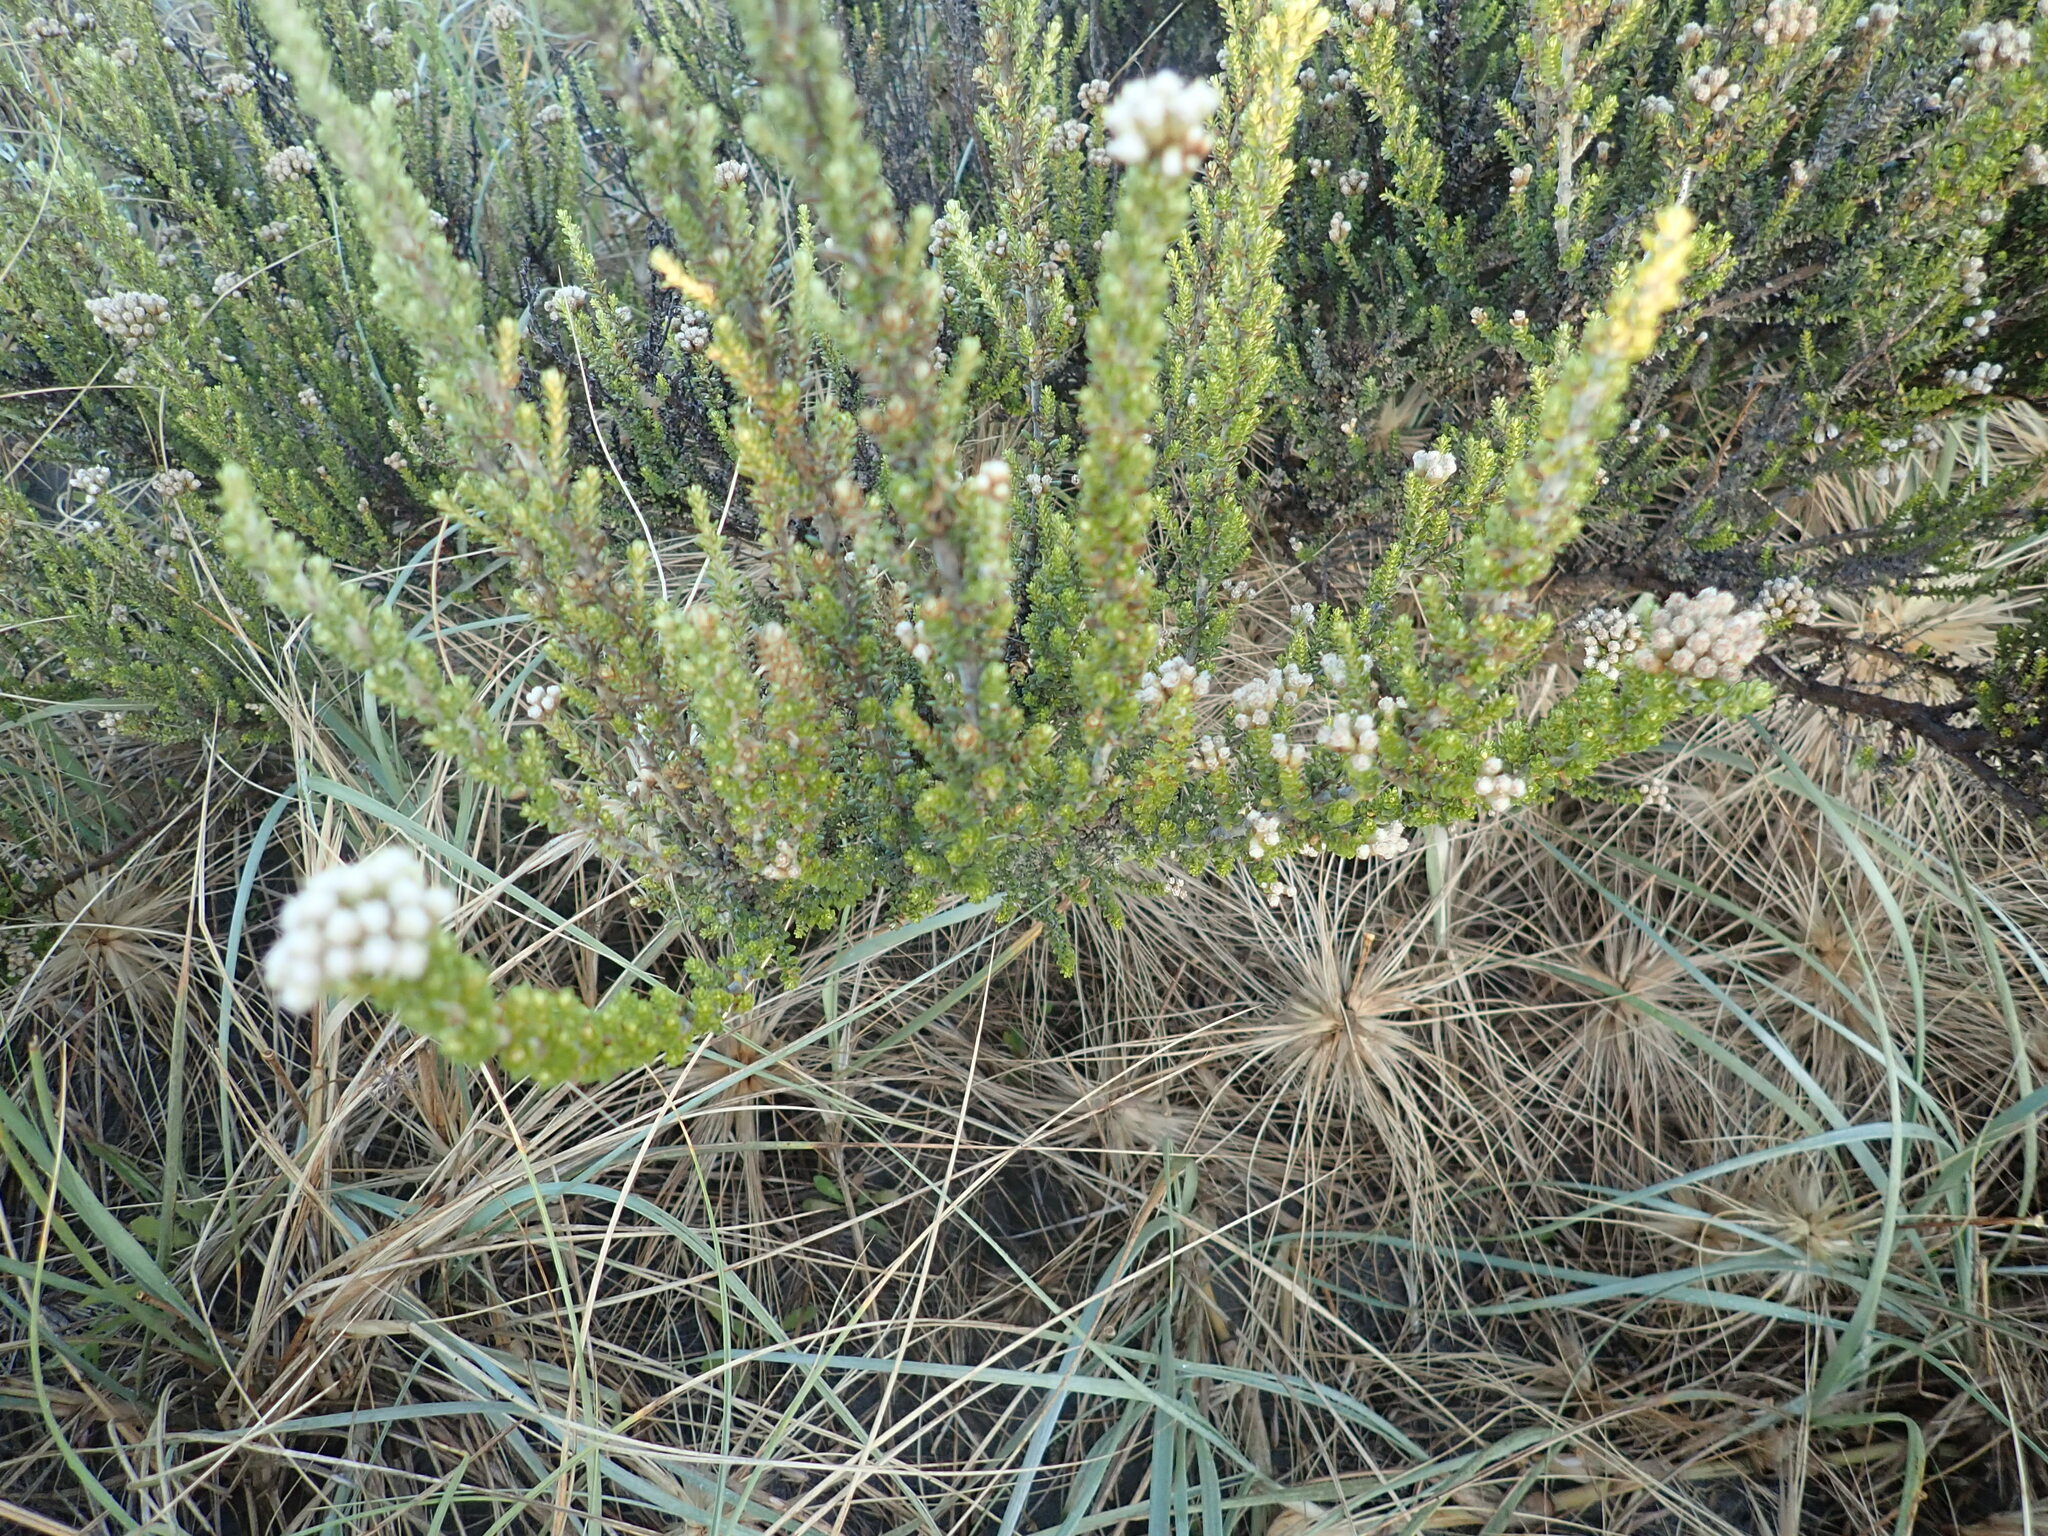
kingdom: Plantae
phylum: Tracheophyta
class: Magnoliopsida
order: Asterales
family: Asteraceae
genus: Ozothamnus
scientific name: Ozothamnus leptophyllus
